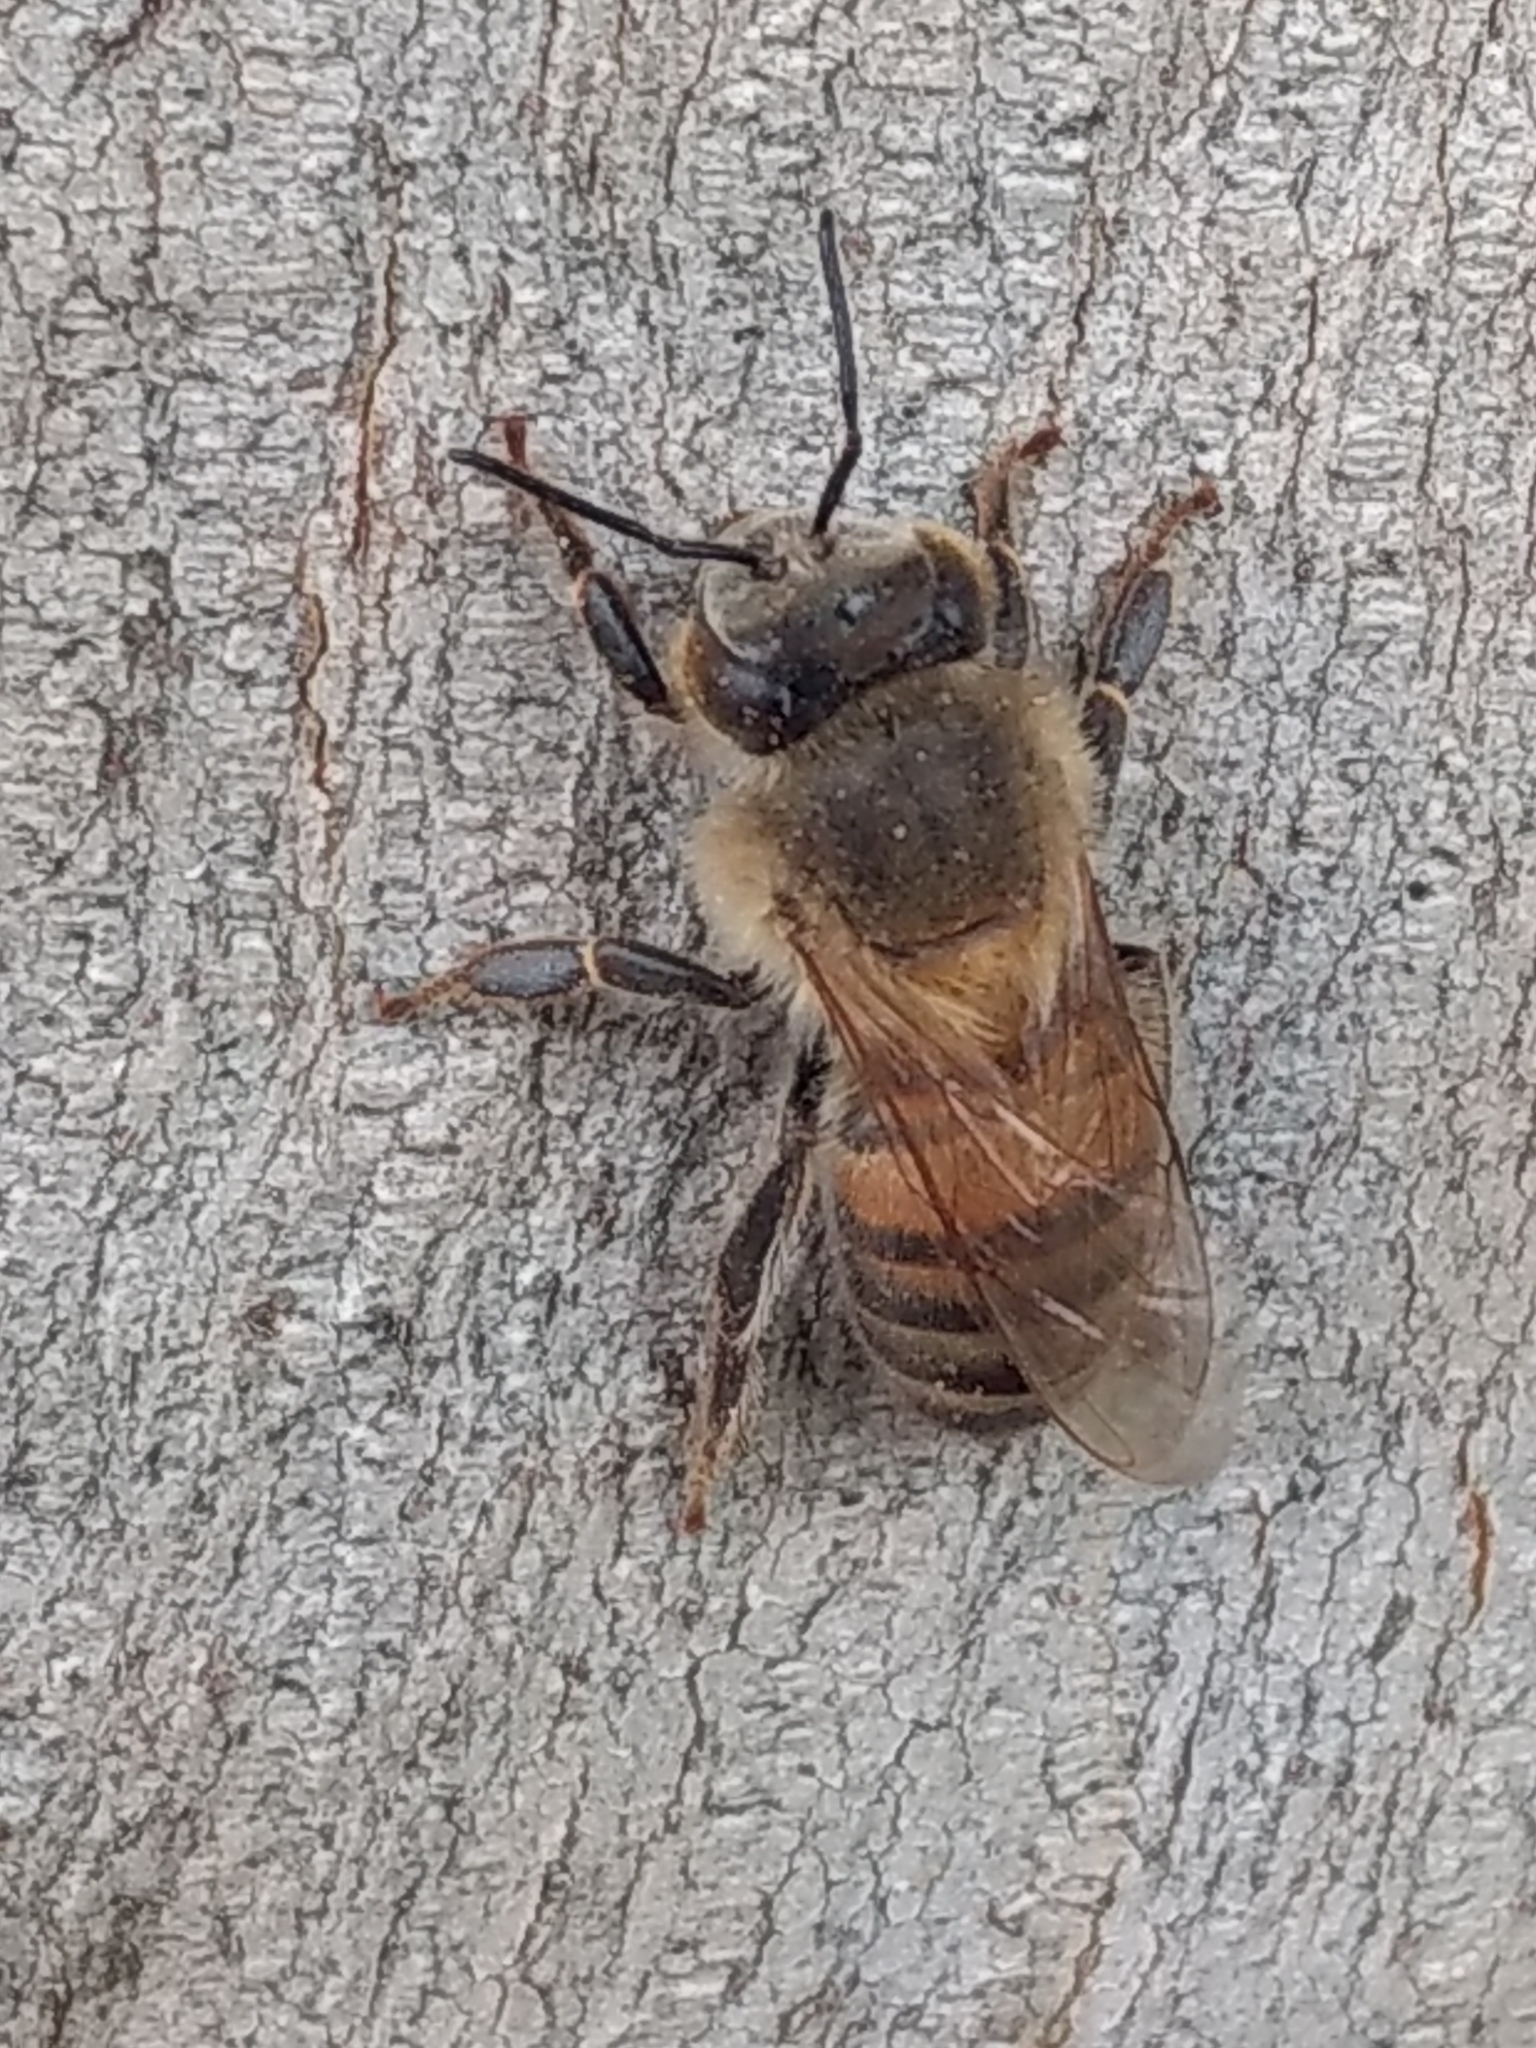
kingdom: Animalia
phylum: Arthropoda
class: Insecta
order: Hymenoptera
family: Apidae
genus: Apis
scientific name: Apis mellifera
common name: Honey bee
